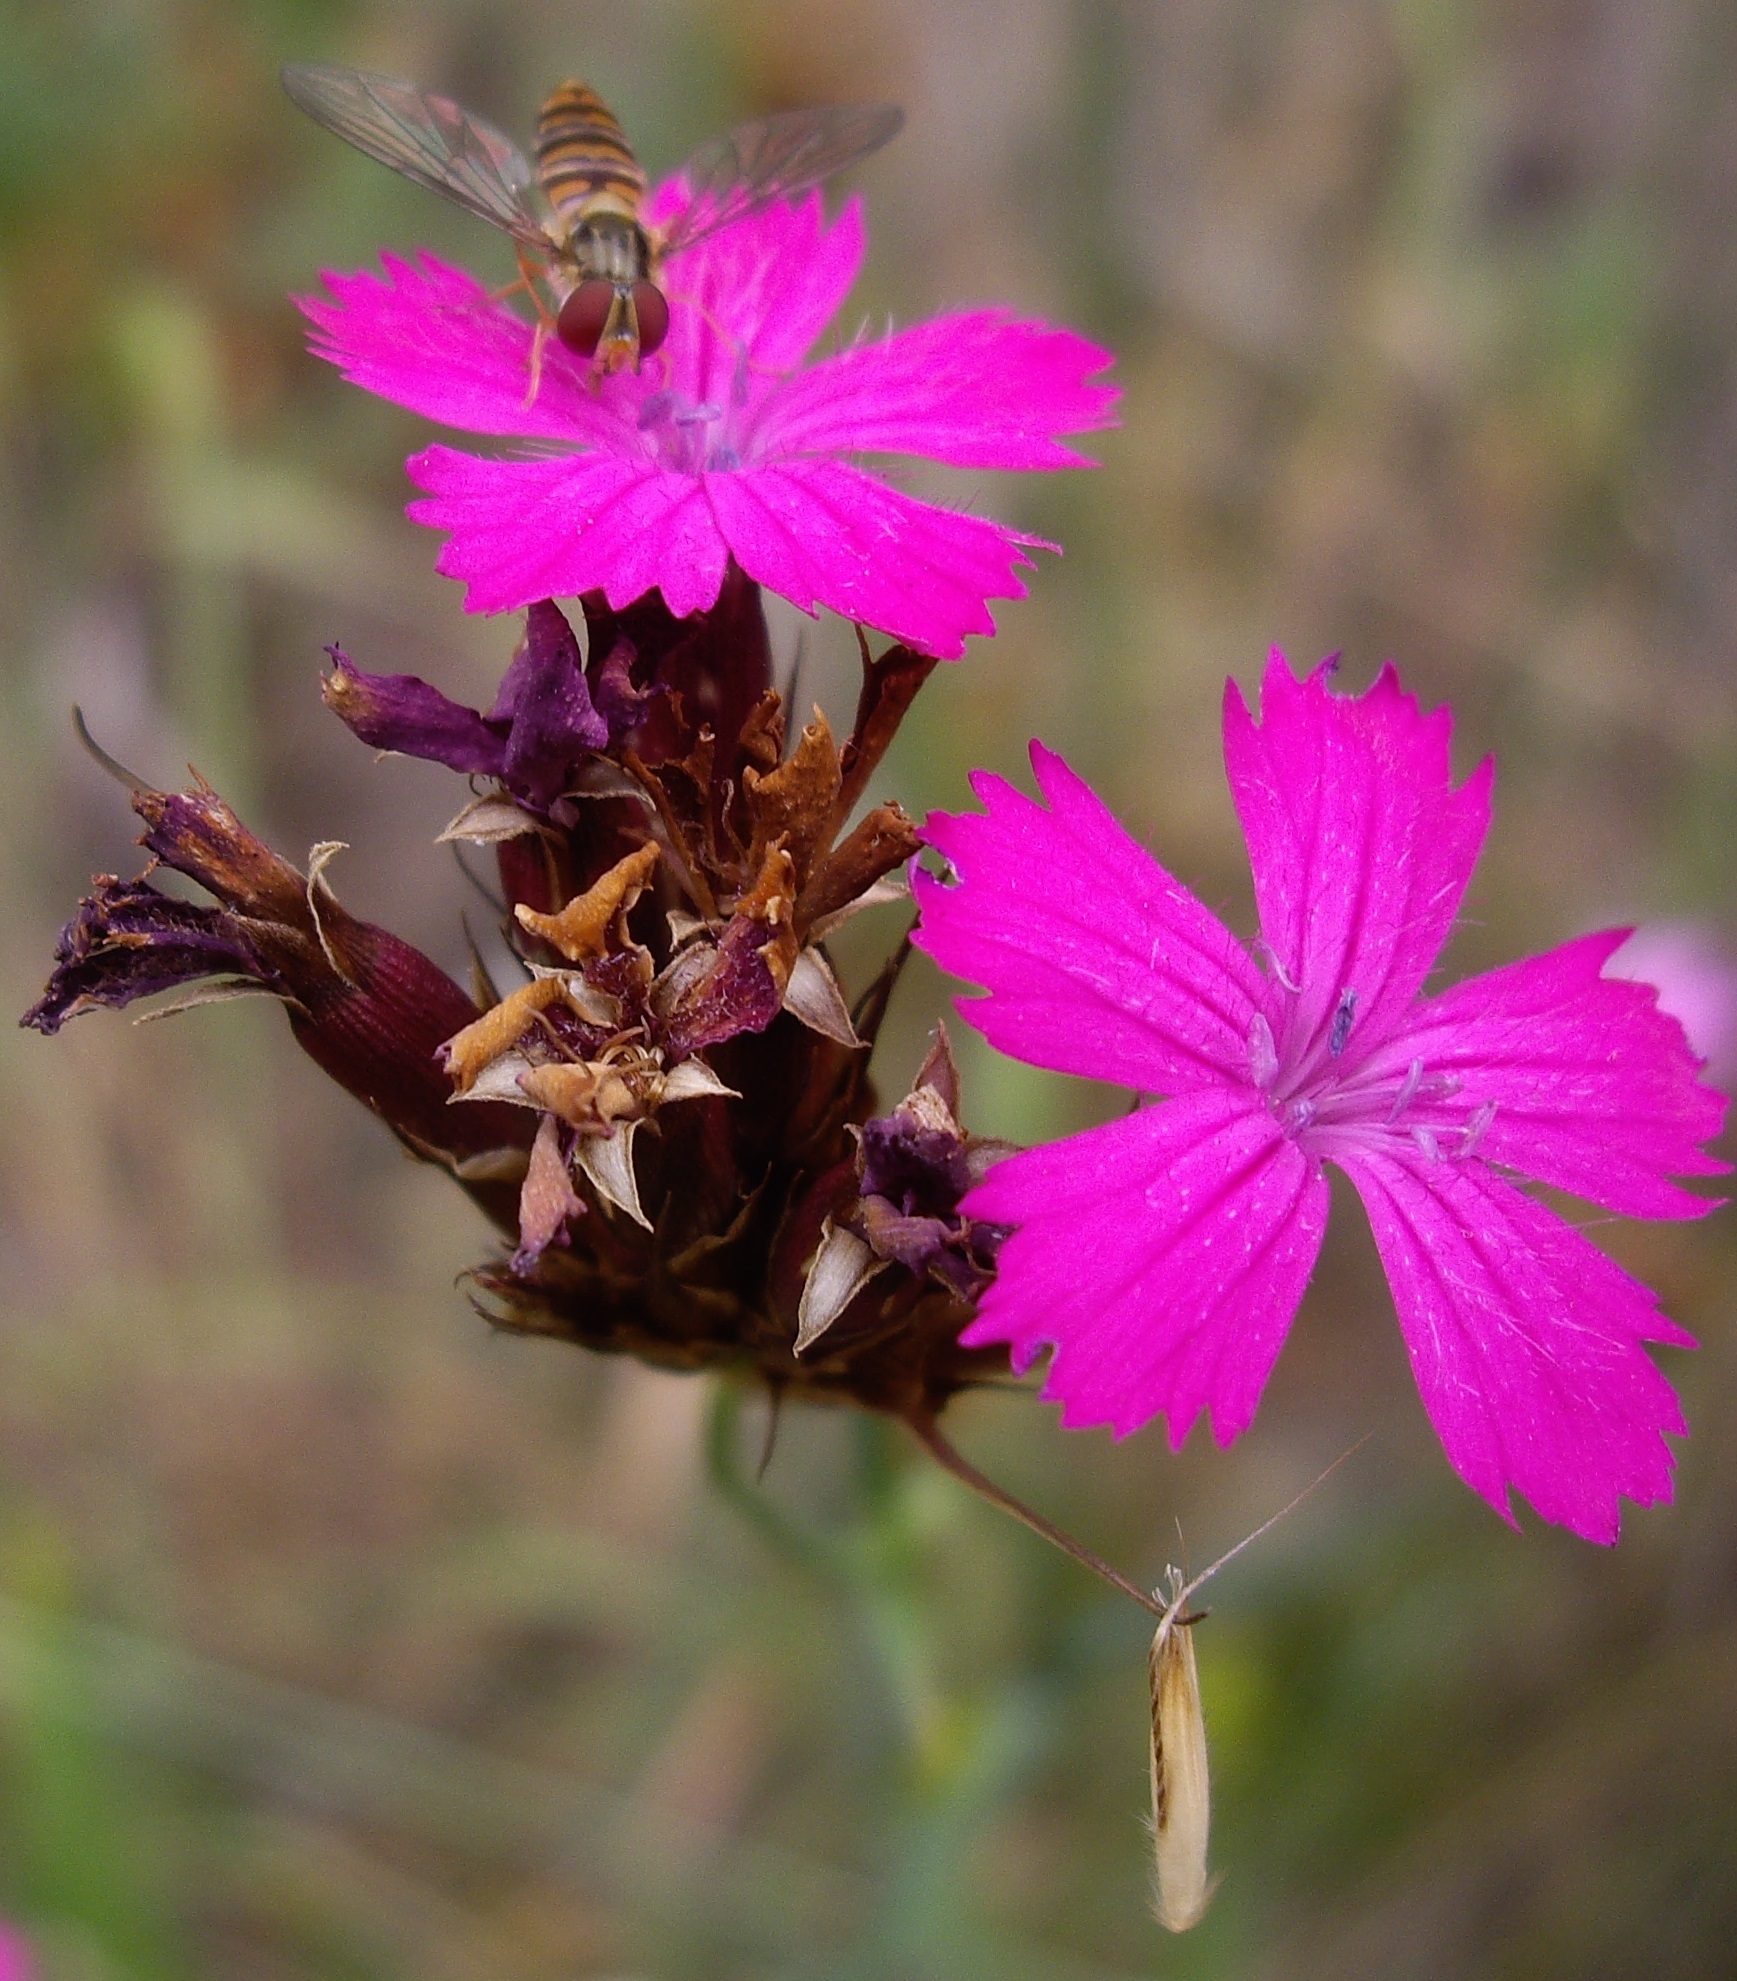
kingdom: Plantae
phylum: Tracheophyta
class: Magnoliopsida
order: Caryophyllales
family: Caryophyllaceae
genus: Dianthus
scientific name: Dianthus carthusianorum
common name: Carthusian pink
